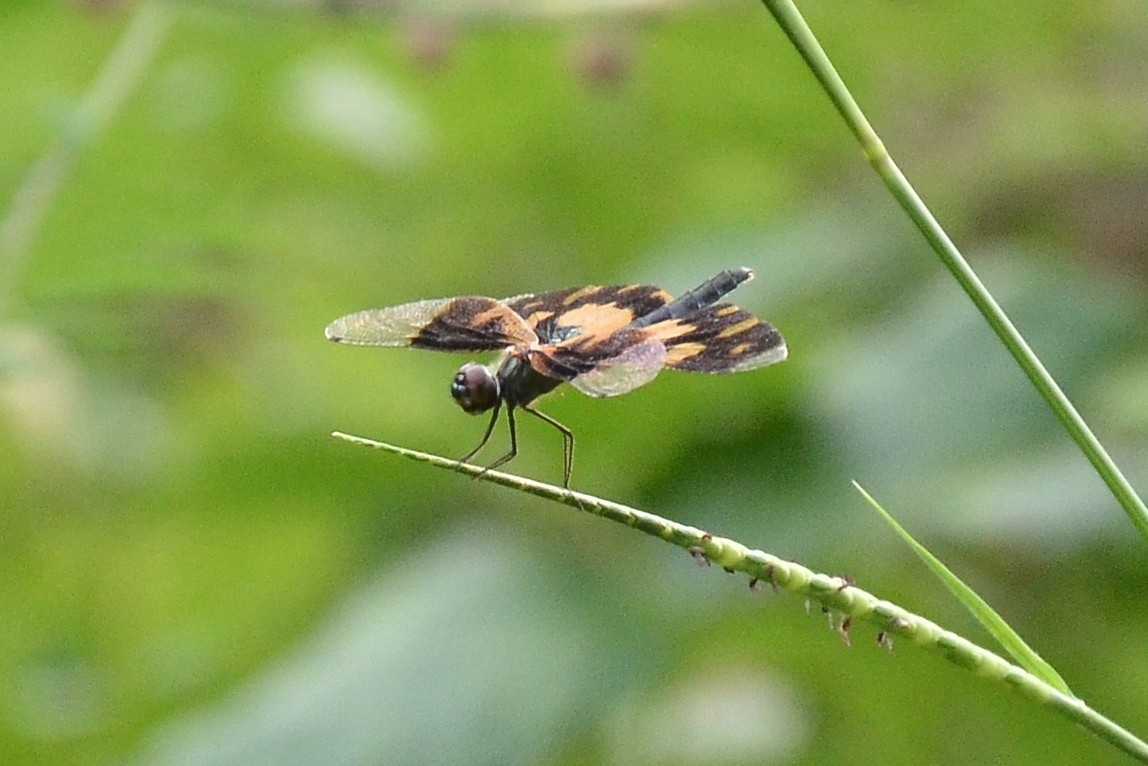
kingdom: Animalia
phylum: Arthropoda
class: Insecta
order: Odonata
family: Libellulidae
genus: Rhyothemis
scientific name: Rhyothemis variegata
